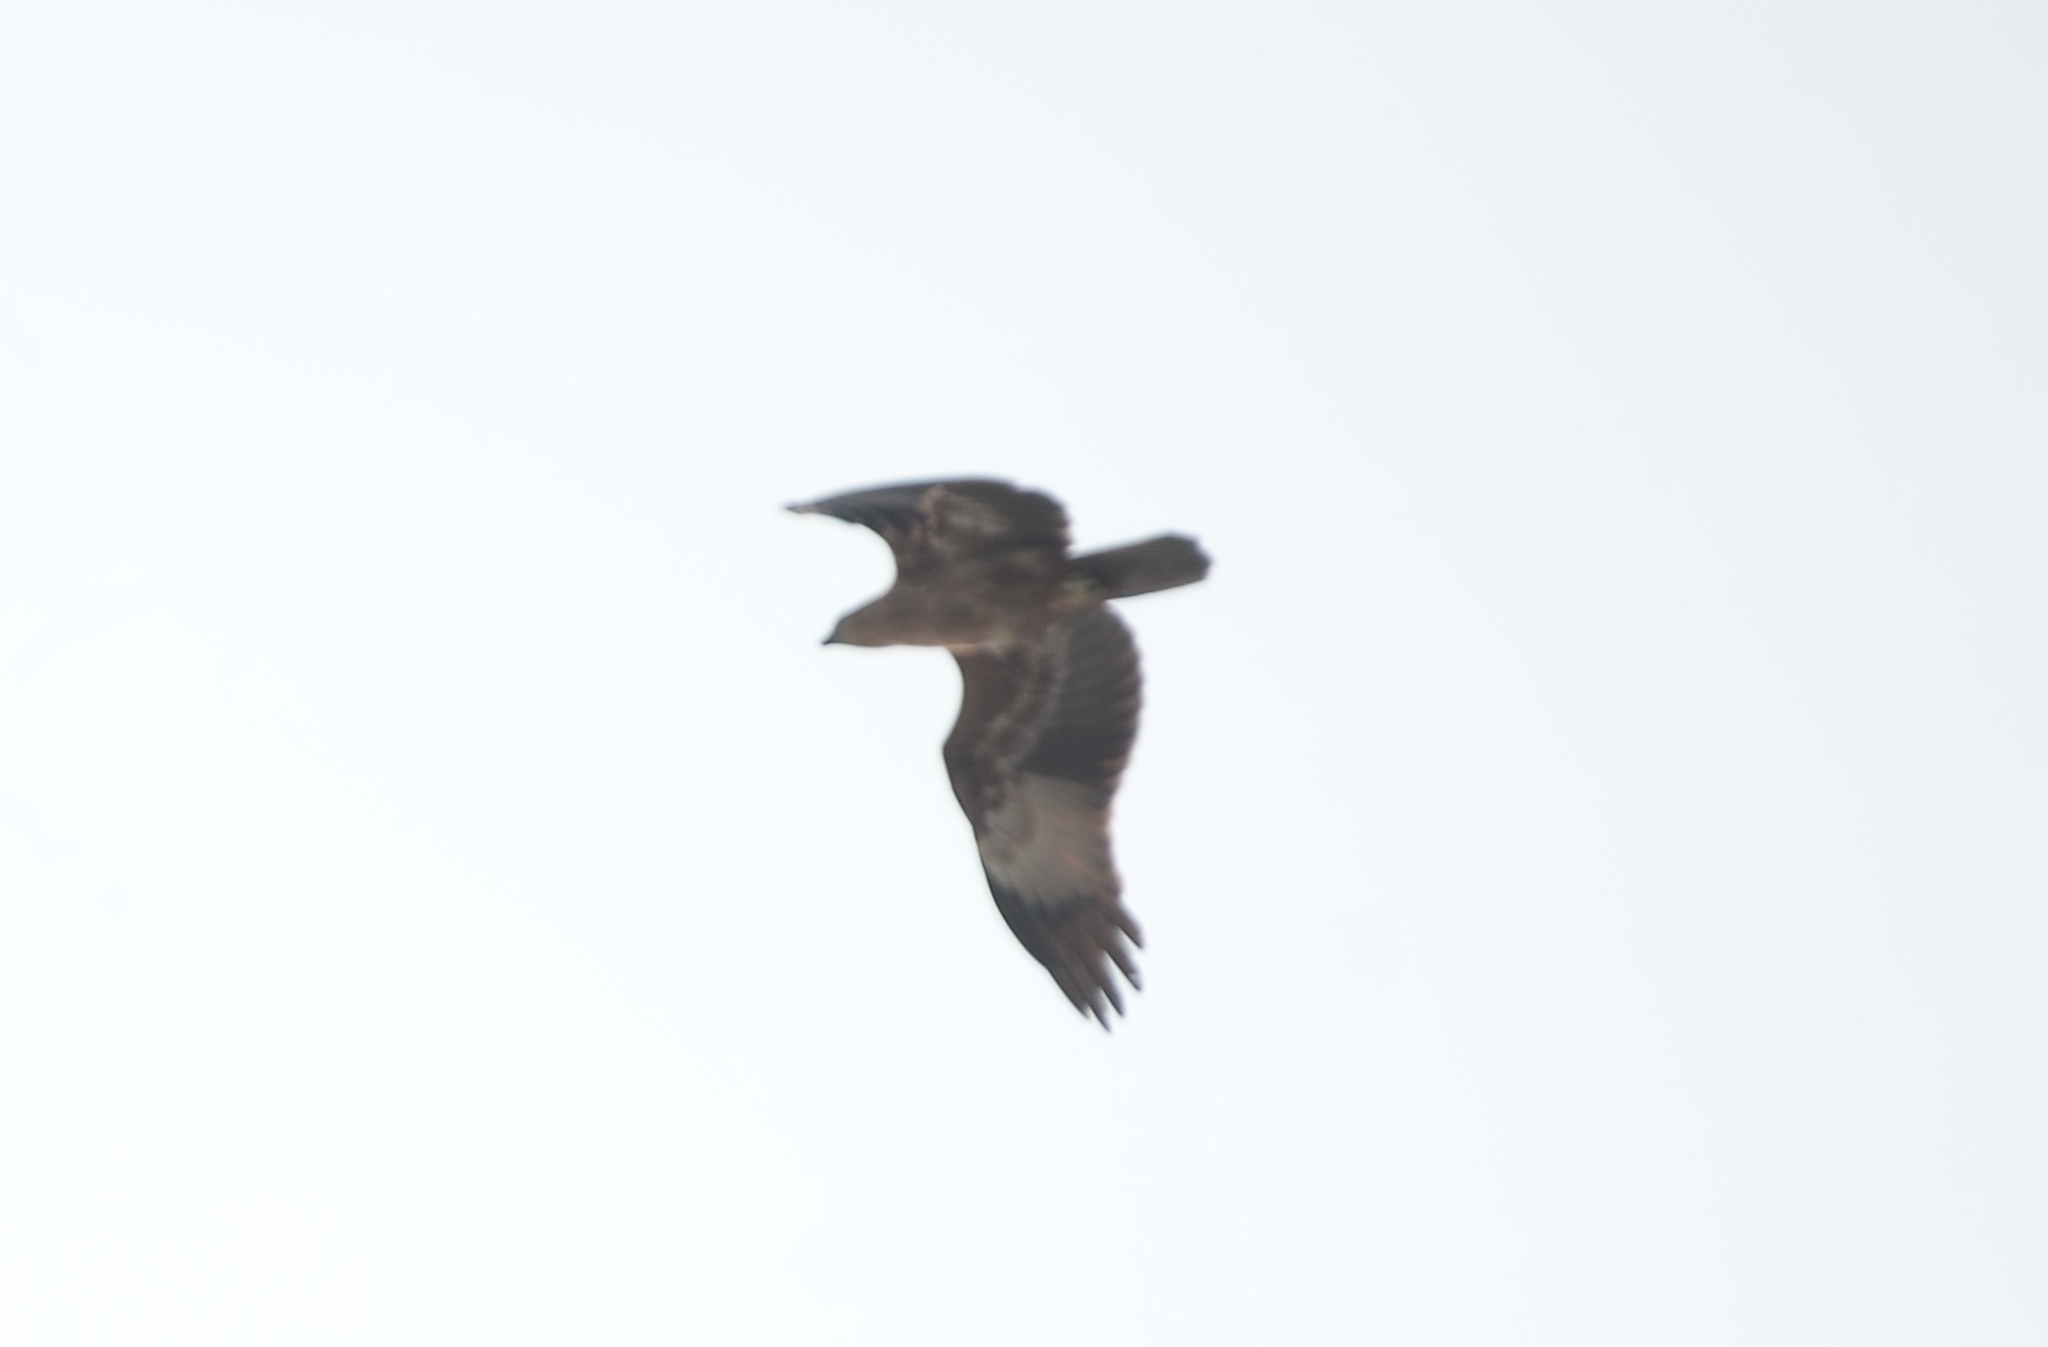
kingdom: Animalia
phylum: Chordata
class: Aves
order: Accipitriformes
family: Accipitridae
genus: Haliastur
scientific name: Haliastur indus
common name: Brahminy kite
